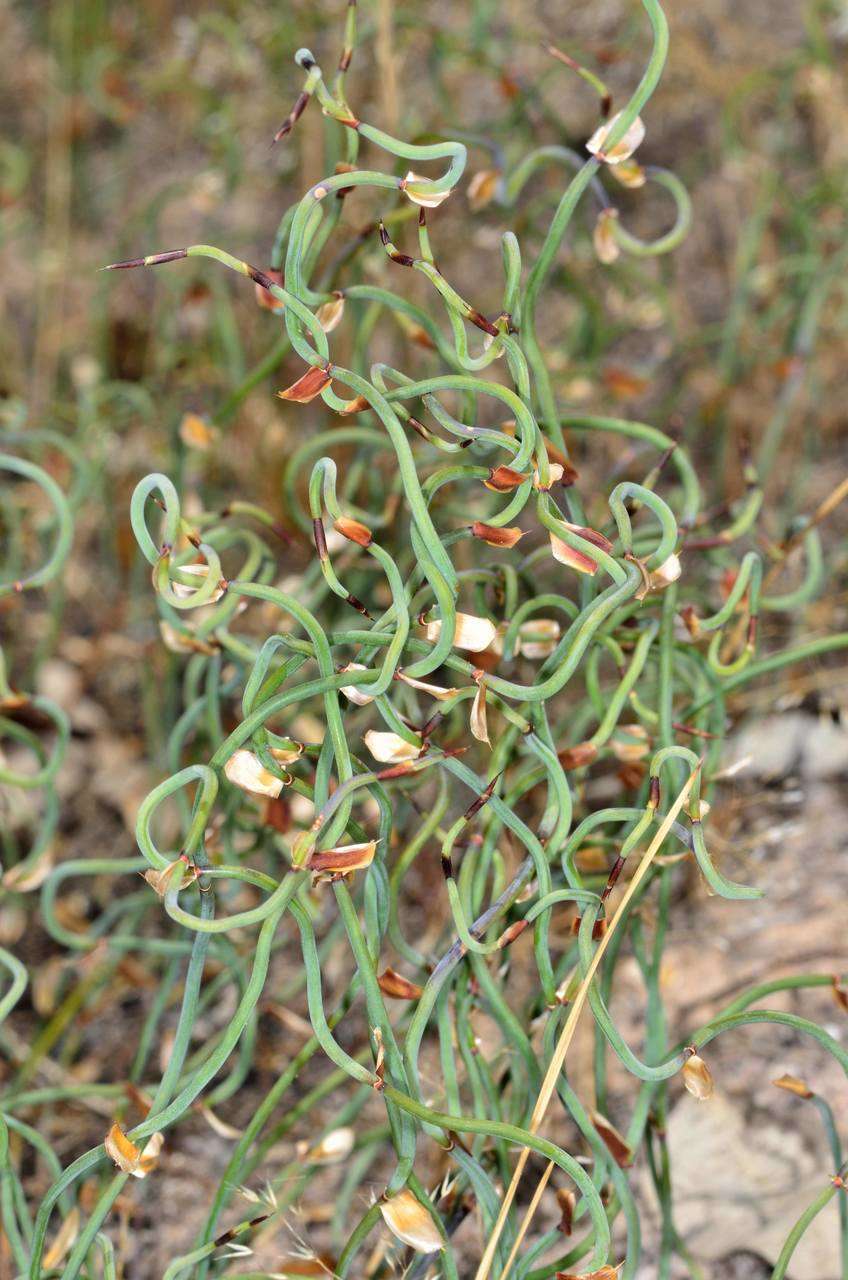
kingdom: Plantae
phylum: Tracheophyta
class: Liliopsida
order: Poales
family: Restionaceae
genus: Lepidobolus
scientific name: Lepidobolus drapetocoleus
